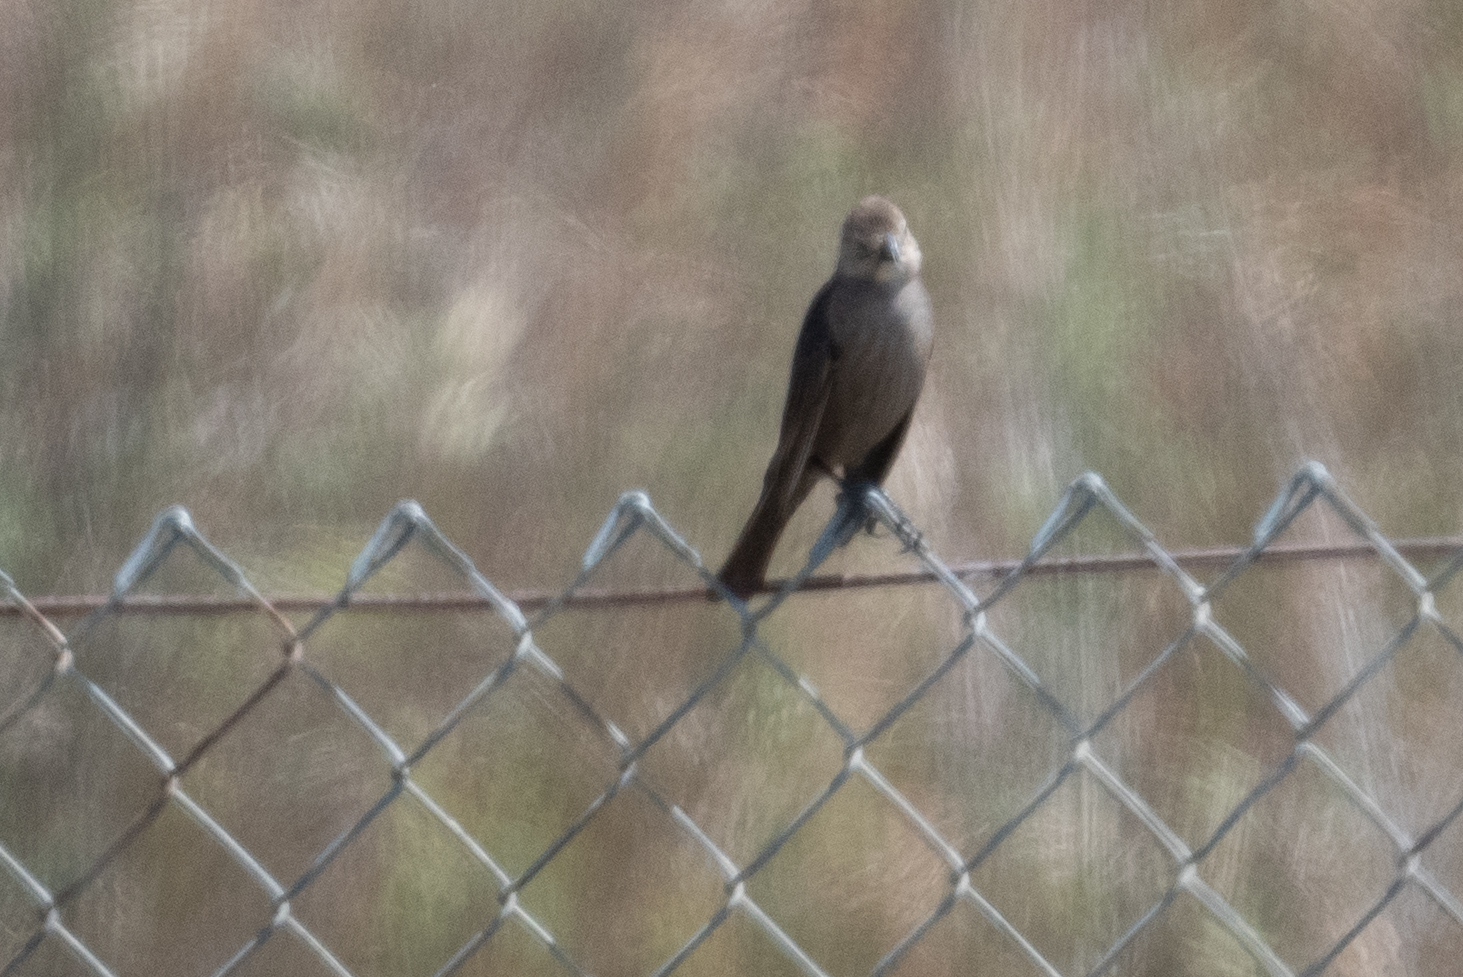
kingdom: Animalia
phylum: Chordata
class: Aves
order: Passeriformes
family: Icteridae
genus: Molothrus
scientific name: Molothrus ater
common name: Brown-headed cowbird
